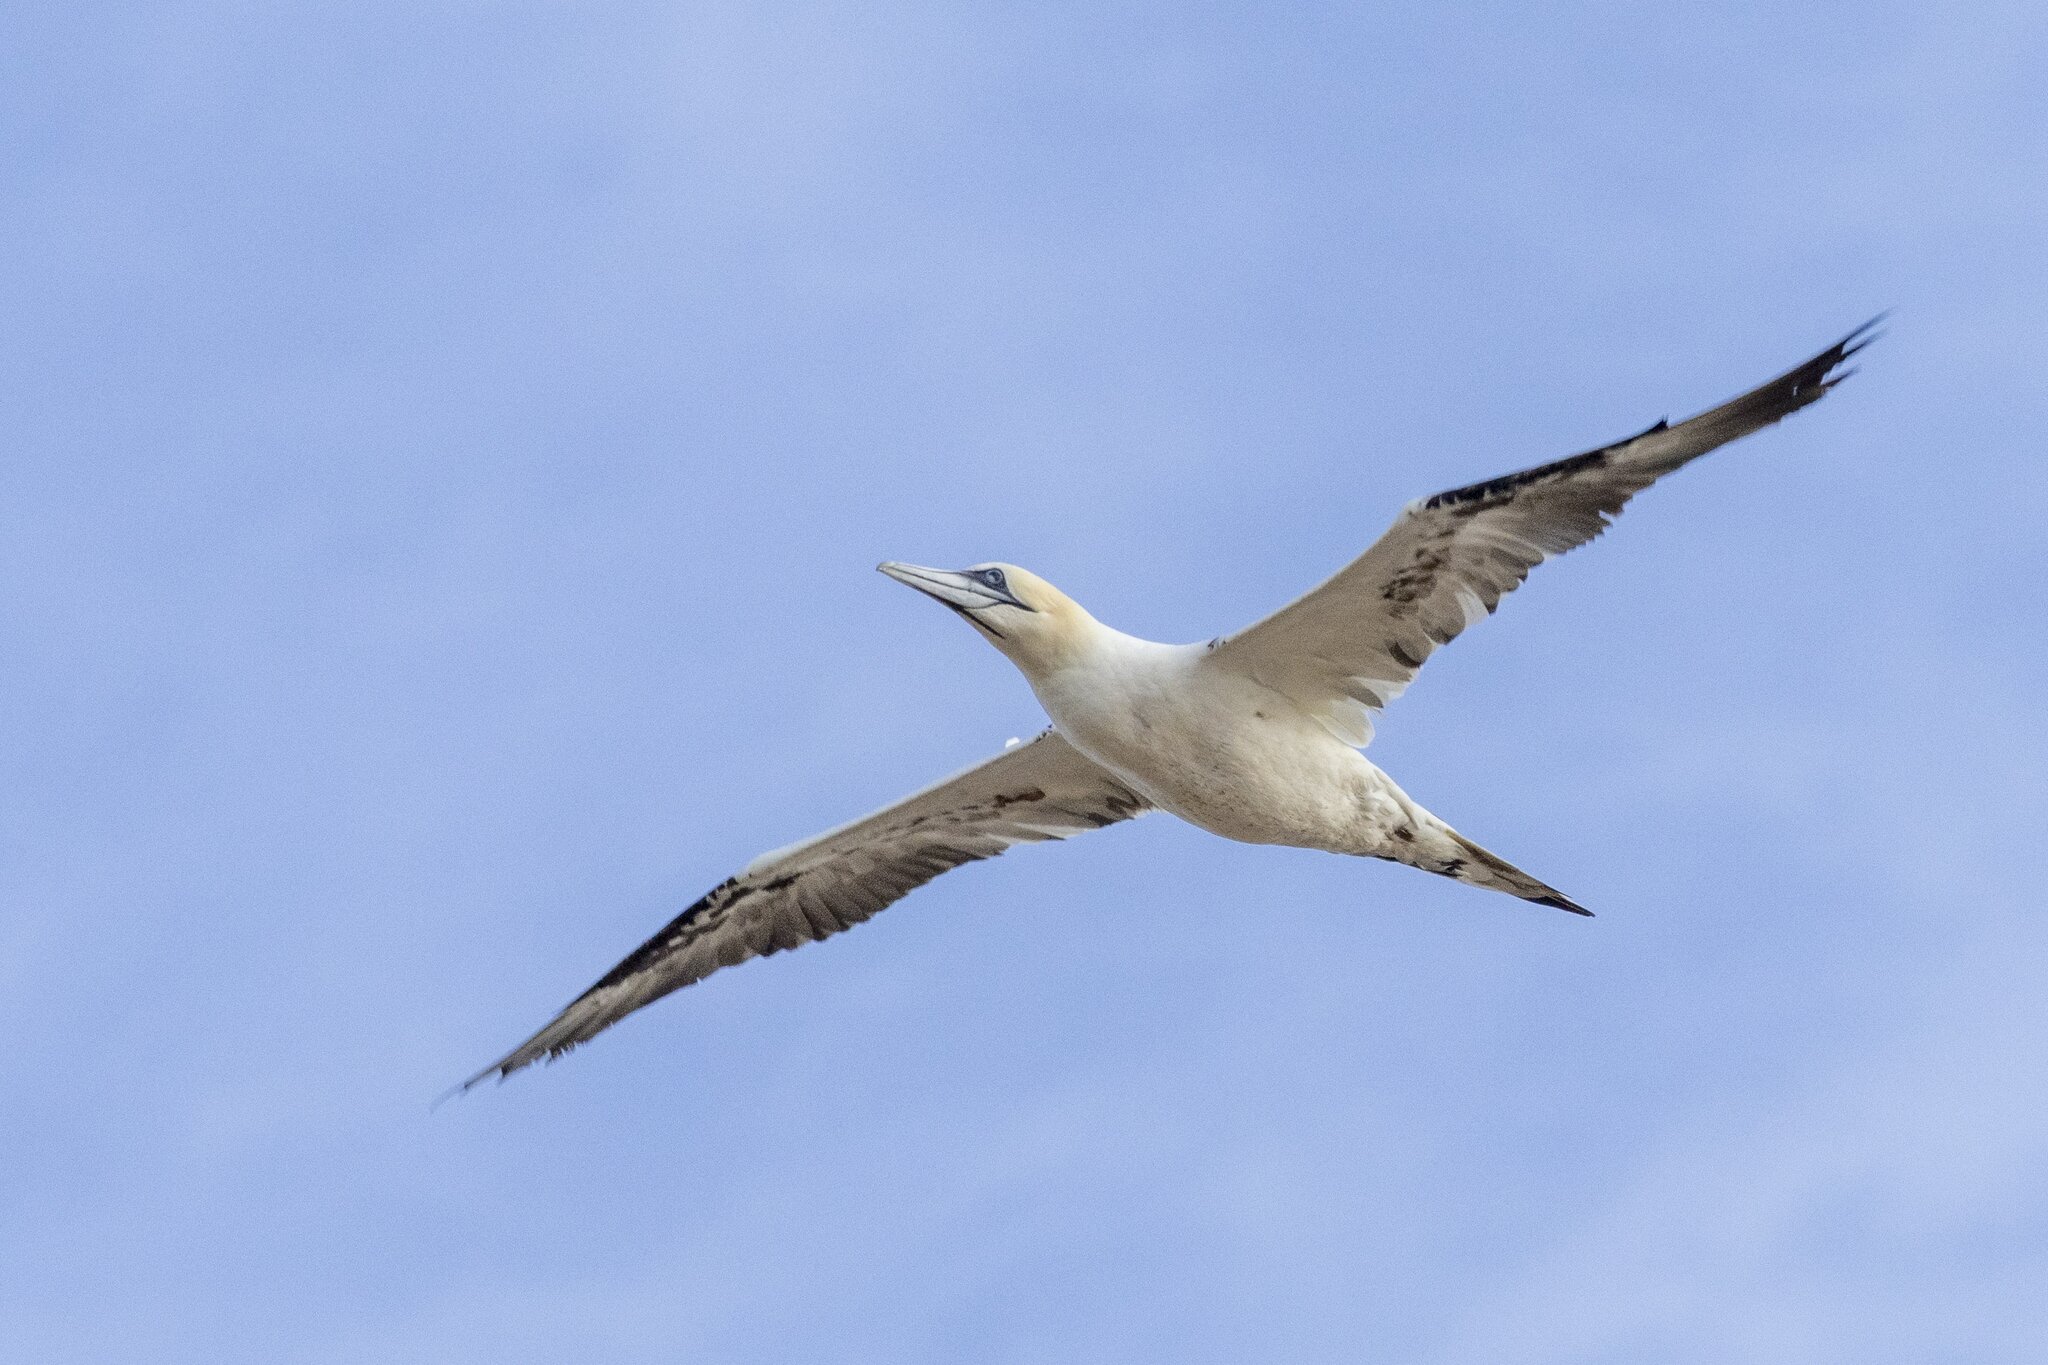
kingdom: Animalia
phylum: Chordata
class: Aves
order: Suliformes
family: Sulidae
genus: Morus
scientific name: Morus bassanus
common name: Northern gannet
